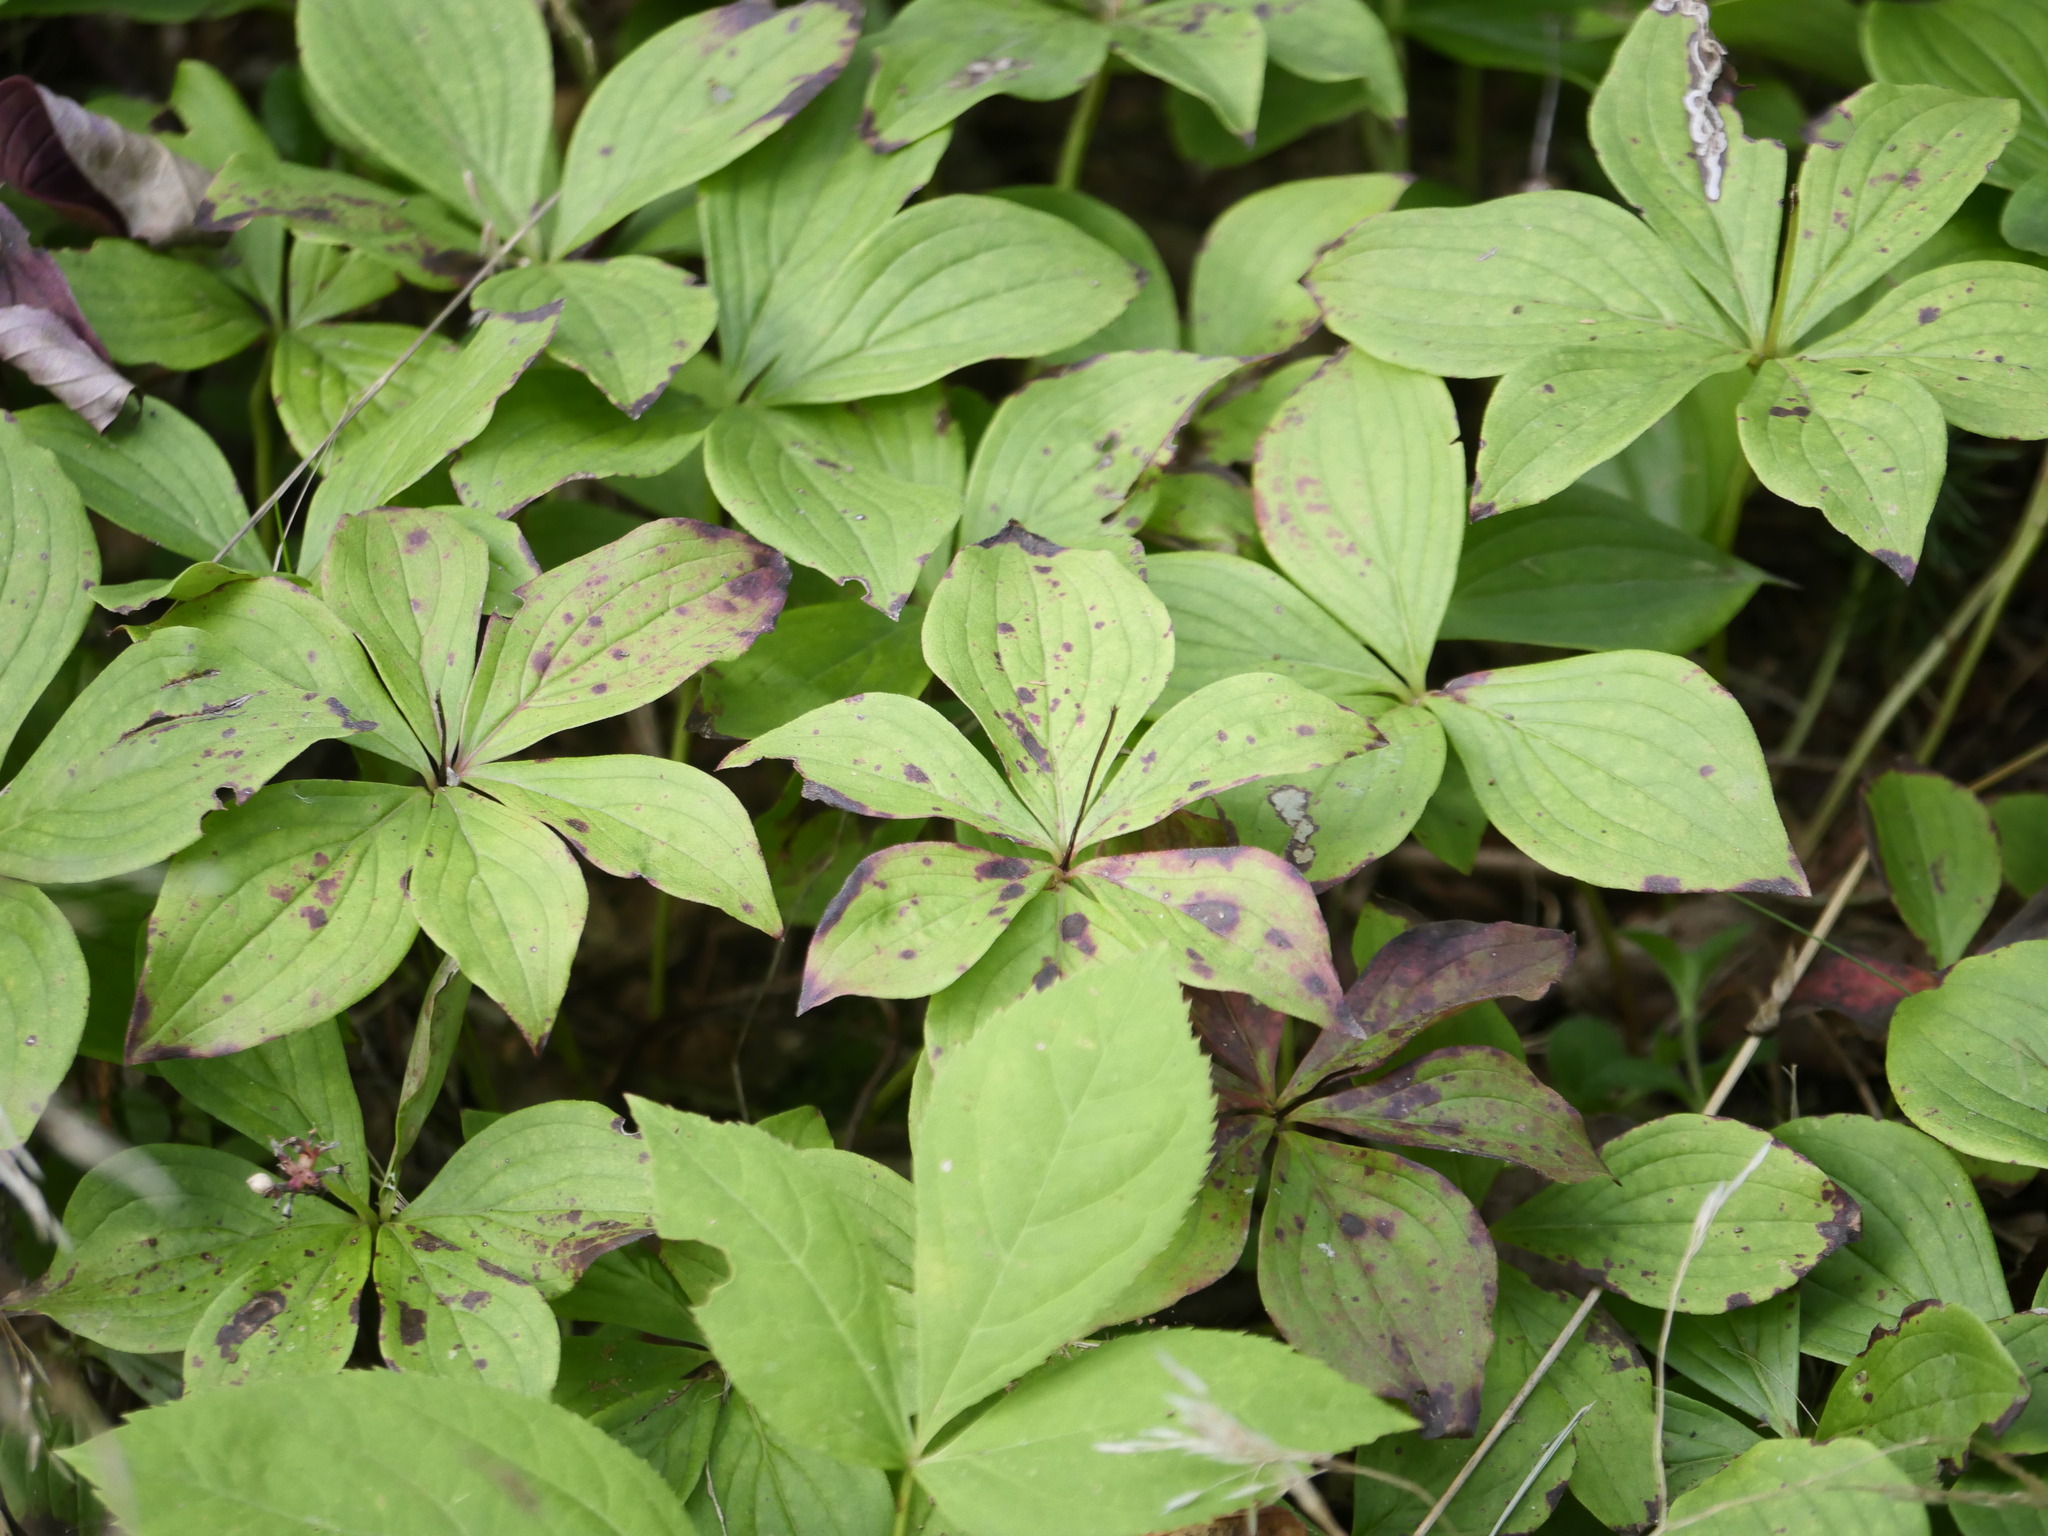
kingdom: Plantae
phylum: Tracheophyta
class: Magnoliopsida
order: Cornales
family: Cornaceae
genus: Cornus
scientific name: Cornus canadensis
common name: Creeping dogwood
